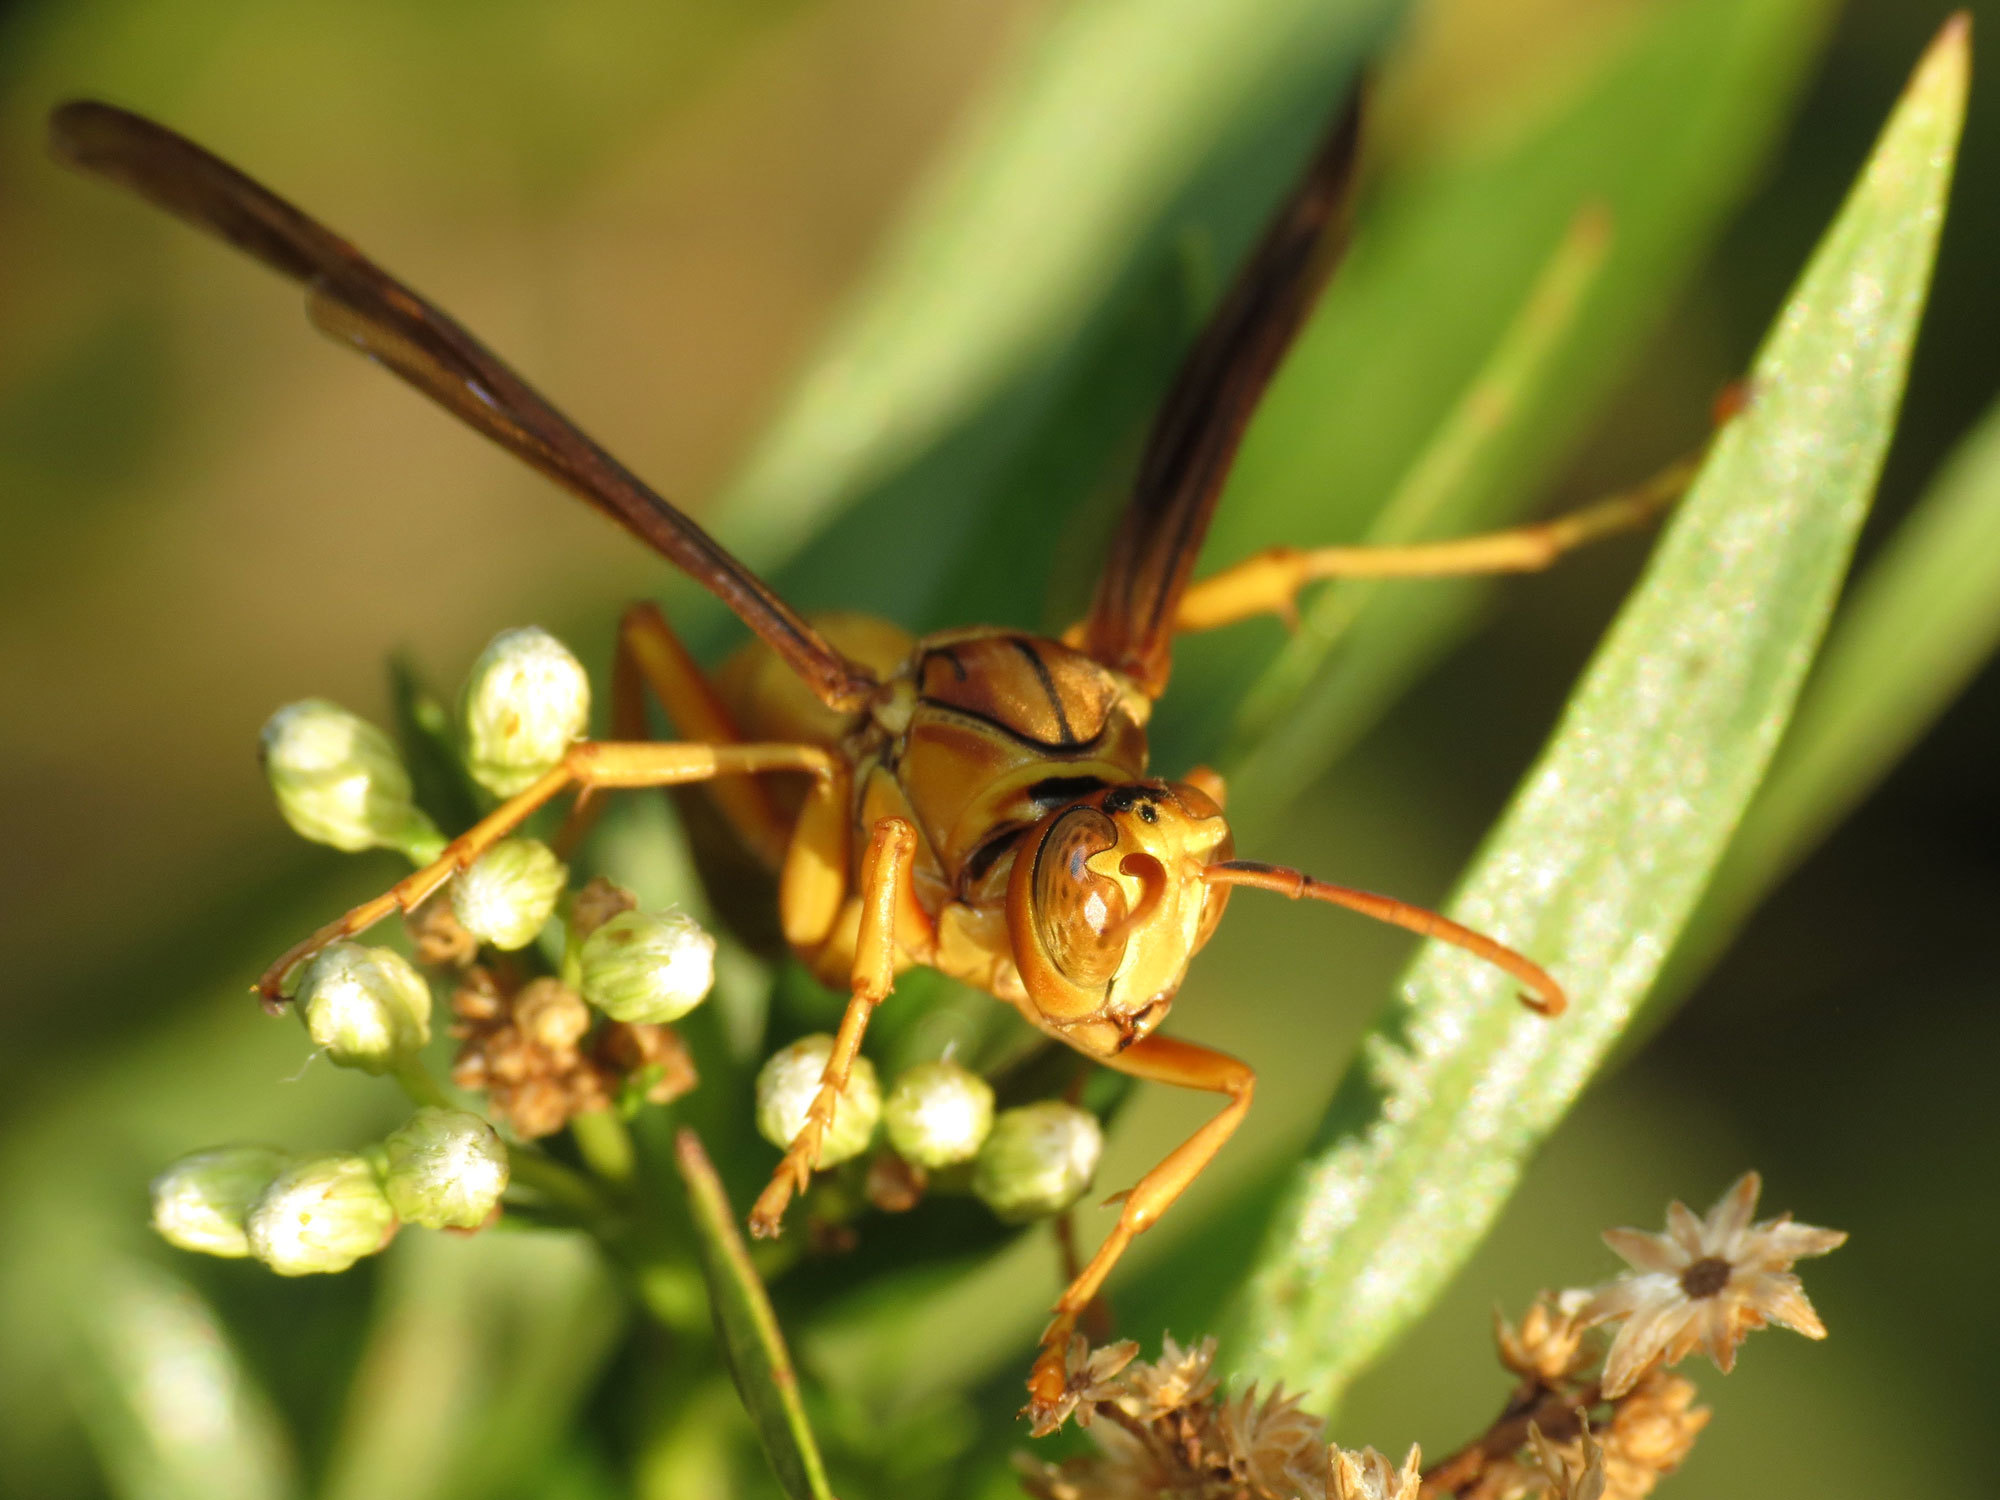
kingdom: Animalia
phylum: Arthropoda
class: Insecta
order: Hymenoptera
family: Eumenidae
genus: Polistes
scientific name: Polistes flavus
